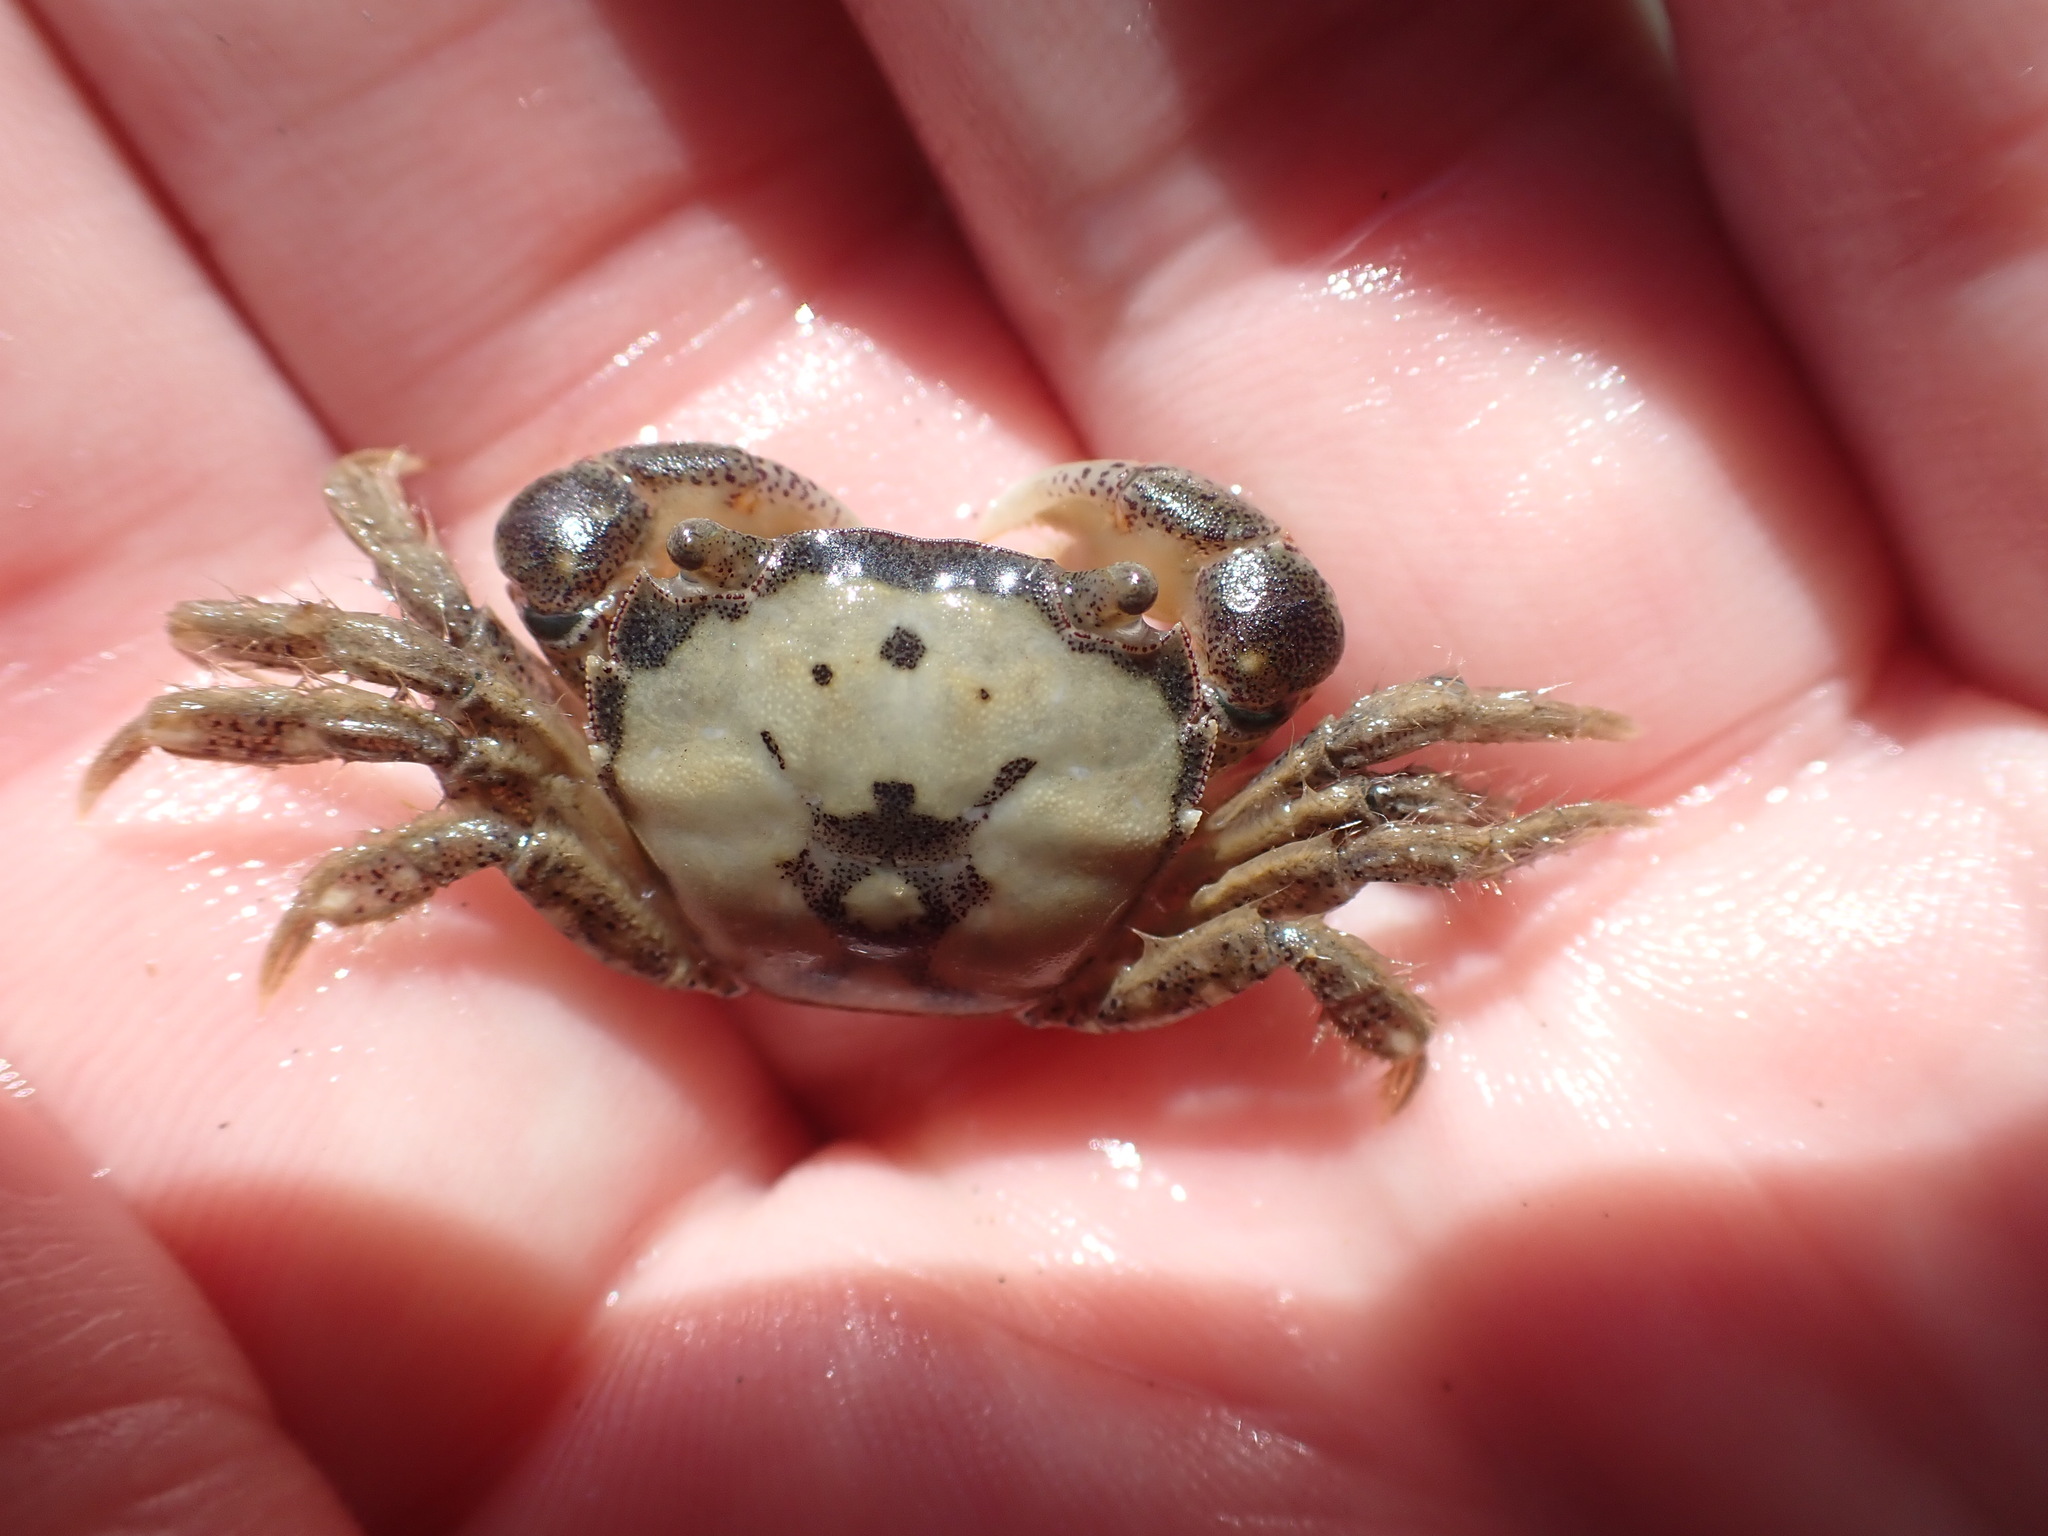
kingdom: Animalia
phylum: Arthropoda
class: Malacostraca
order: Decapoda
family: Varunidae
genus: Hemigrapsus
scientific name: Hemigrapsus crenulatus
